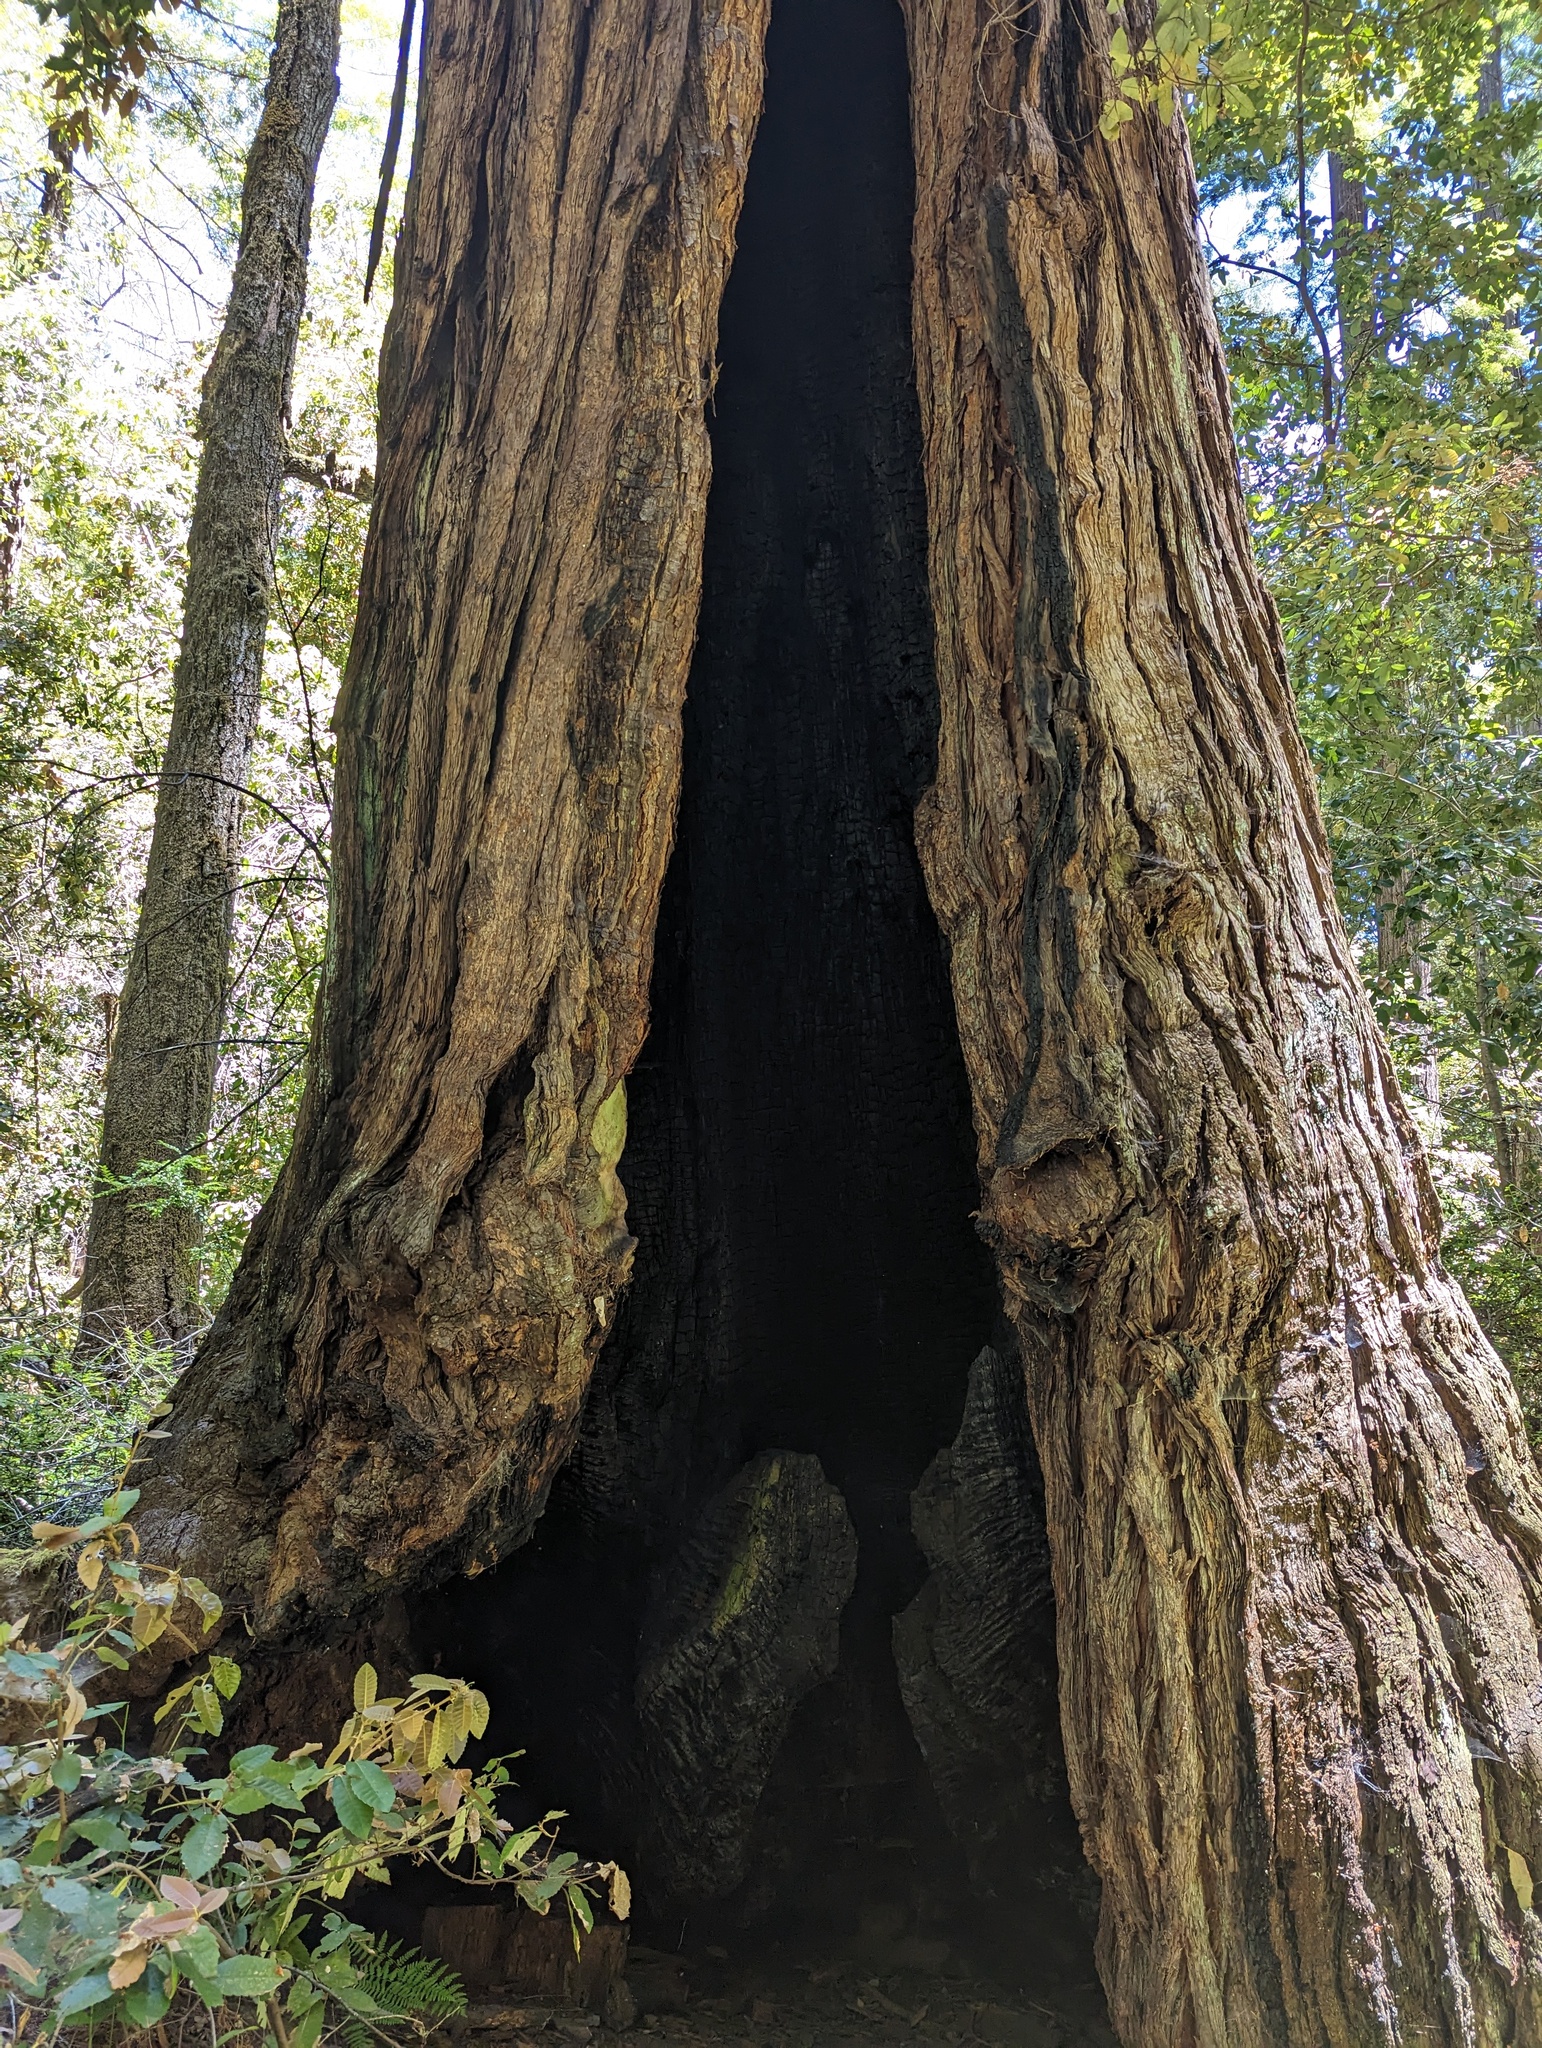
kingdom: Plantae
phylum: Tracheophyta
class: Pinopsida
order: Pinales
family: Cupressaceae
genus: Sequoia
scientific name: Sequoia sempervirens
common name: Coast redwood
